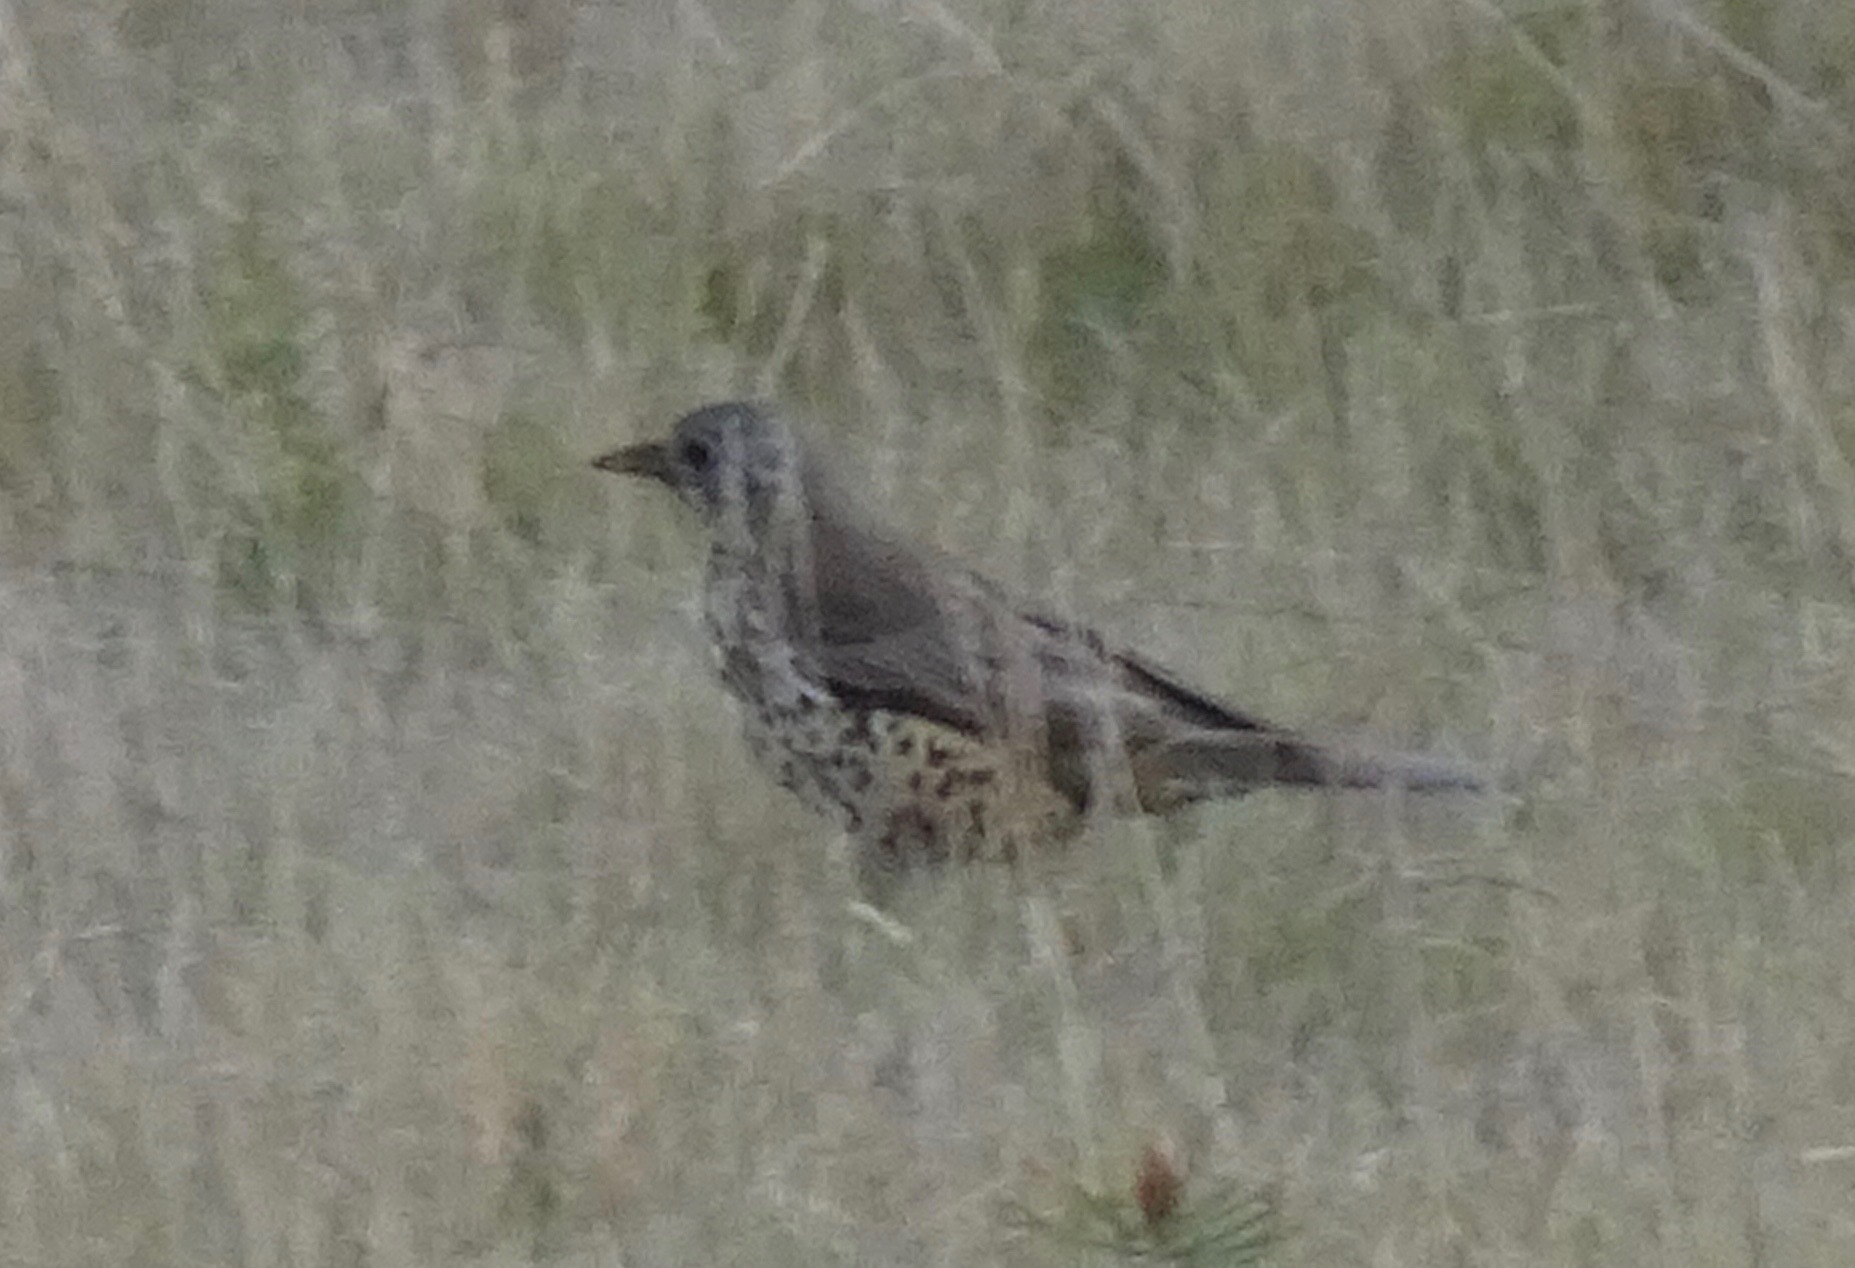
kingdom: Animalia
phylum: Chordata
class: Aves
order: Passeriformes
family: Turdidae
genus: Turdus
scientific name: Turdus viscivorus
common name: Mistle thrush
